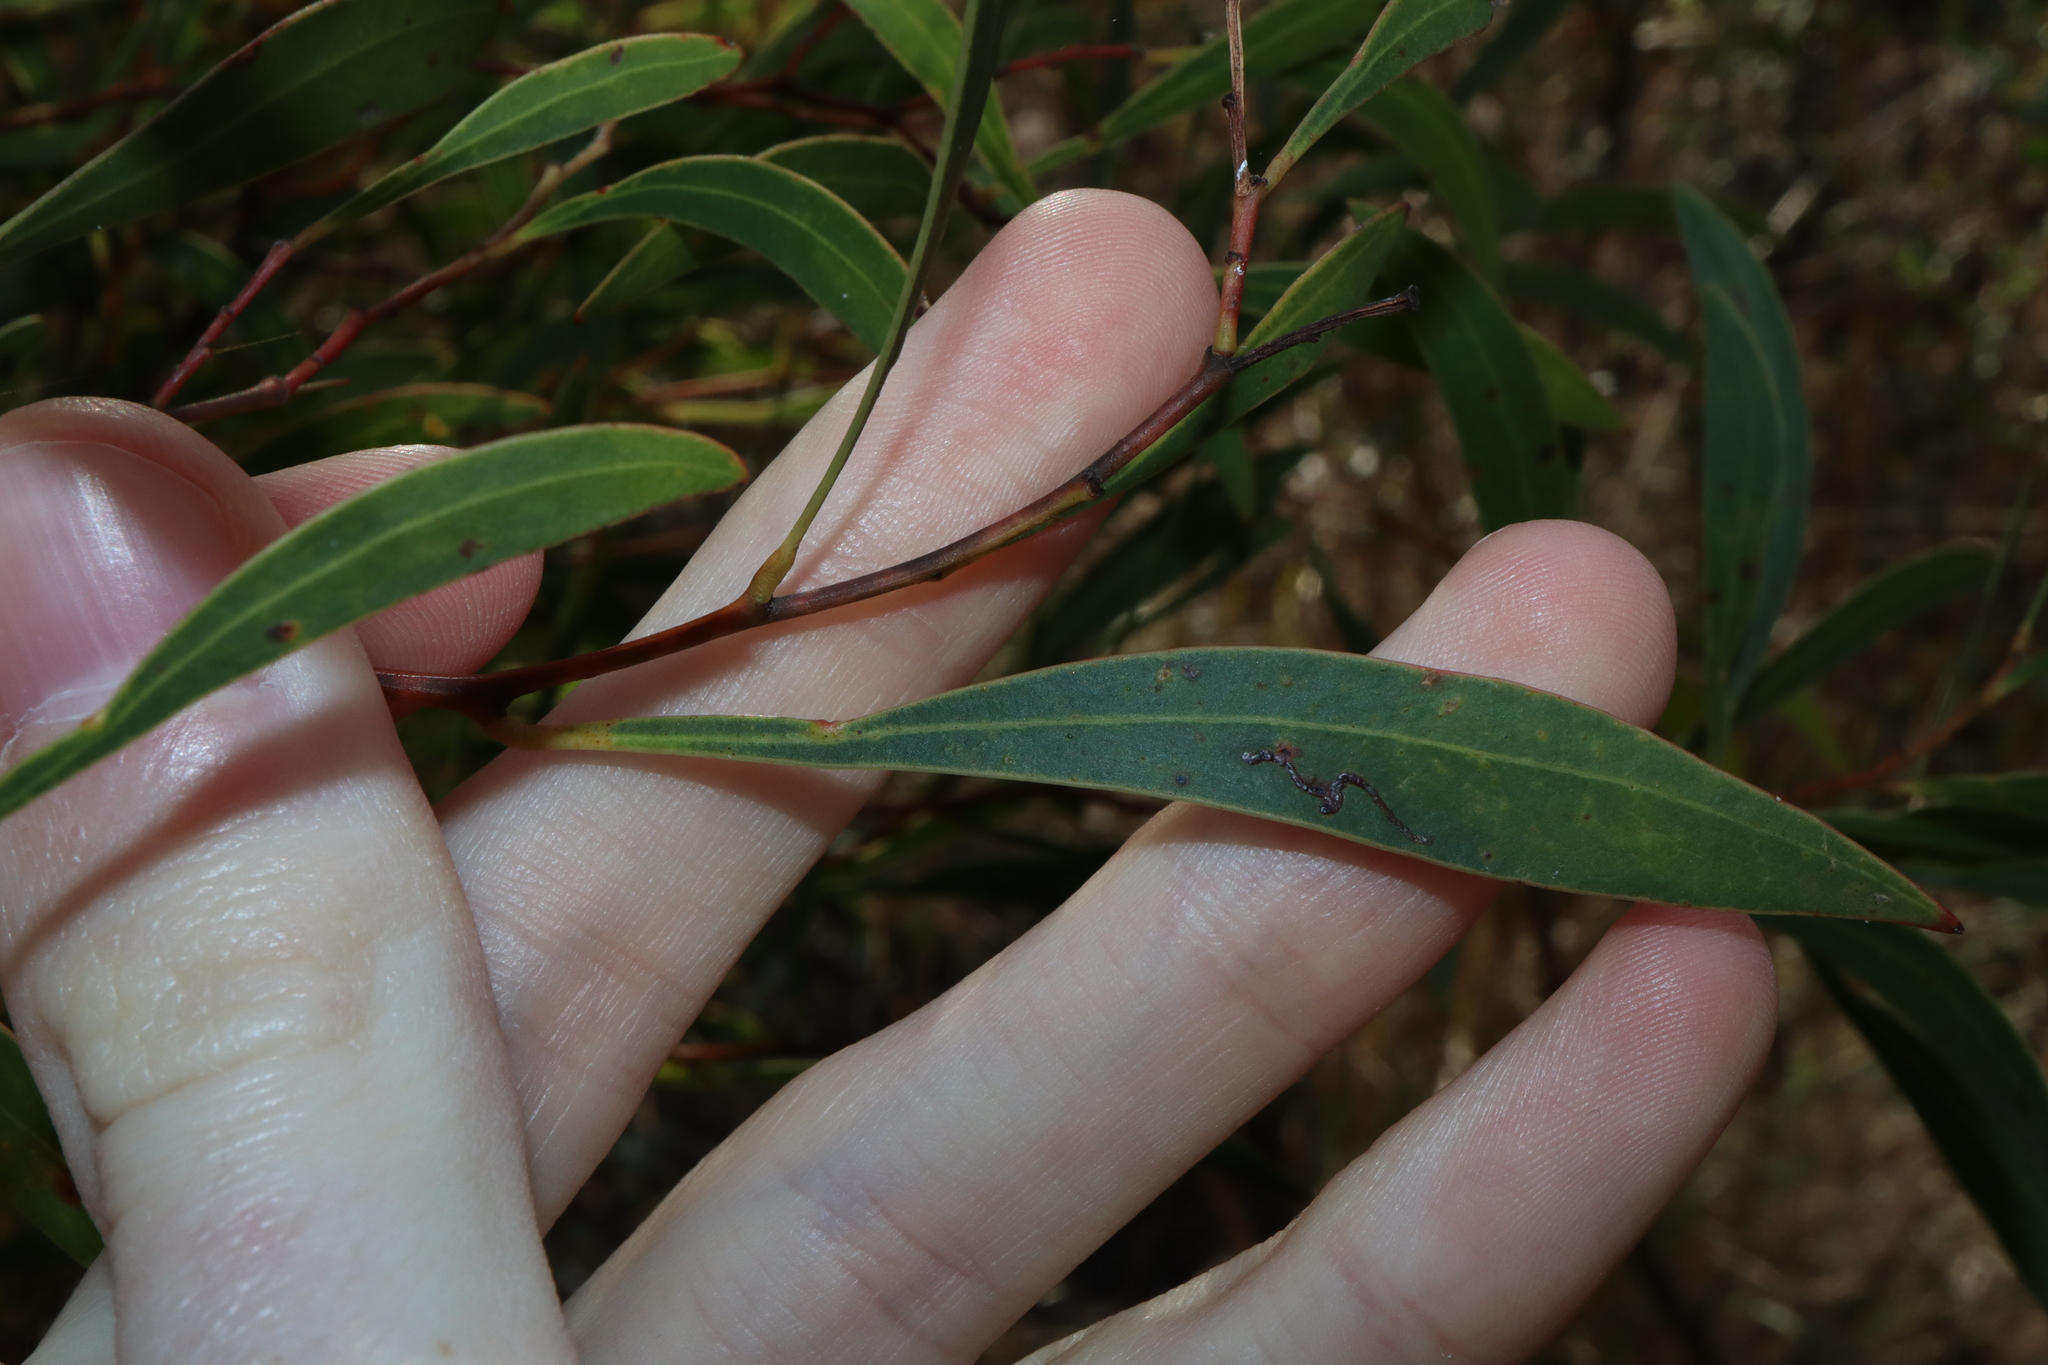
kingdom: Plantae
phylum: Tracheophyta
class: Magnoliopsida
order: Fabales
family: Fabaceae
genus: Acacia
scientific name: Acacia penninervis
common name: Hickory wattle
